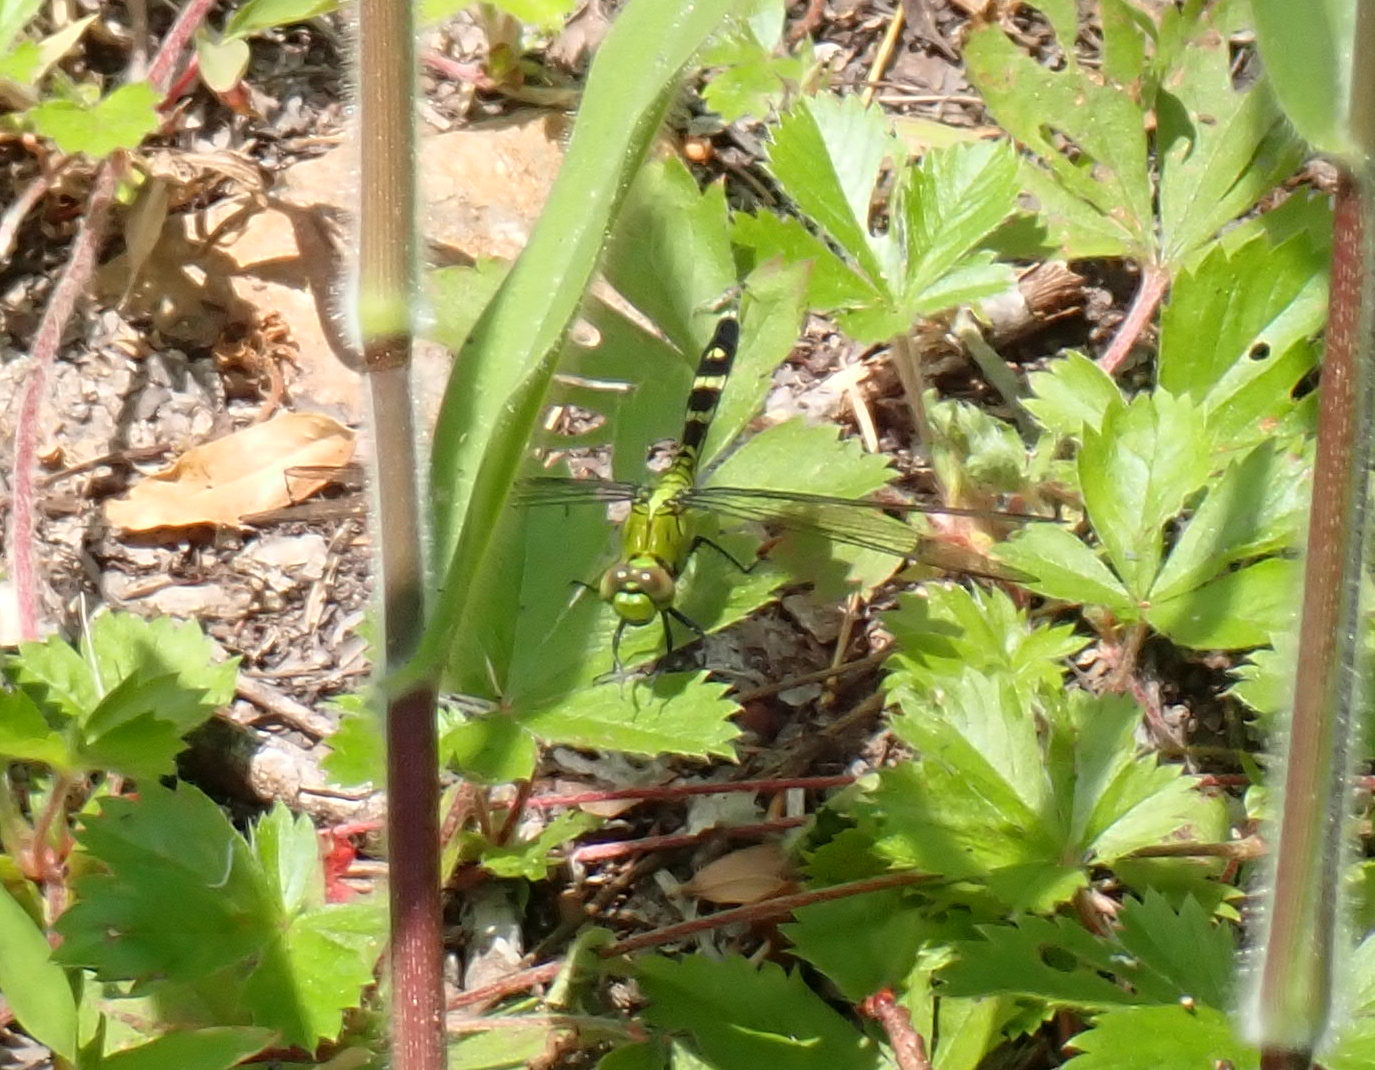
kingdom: Animalia
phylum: Arthropoda
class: Insecta
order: Odonata
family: Libellulidae
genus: Erythemis
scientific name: Erythemis simplicicollis
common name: Eastern pondhawk
